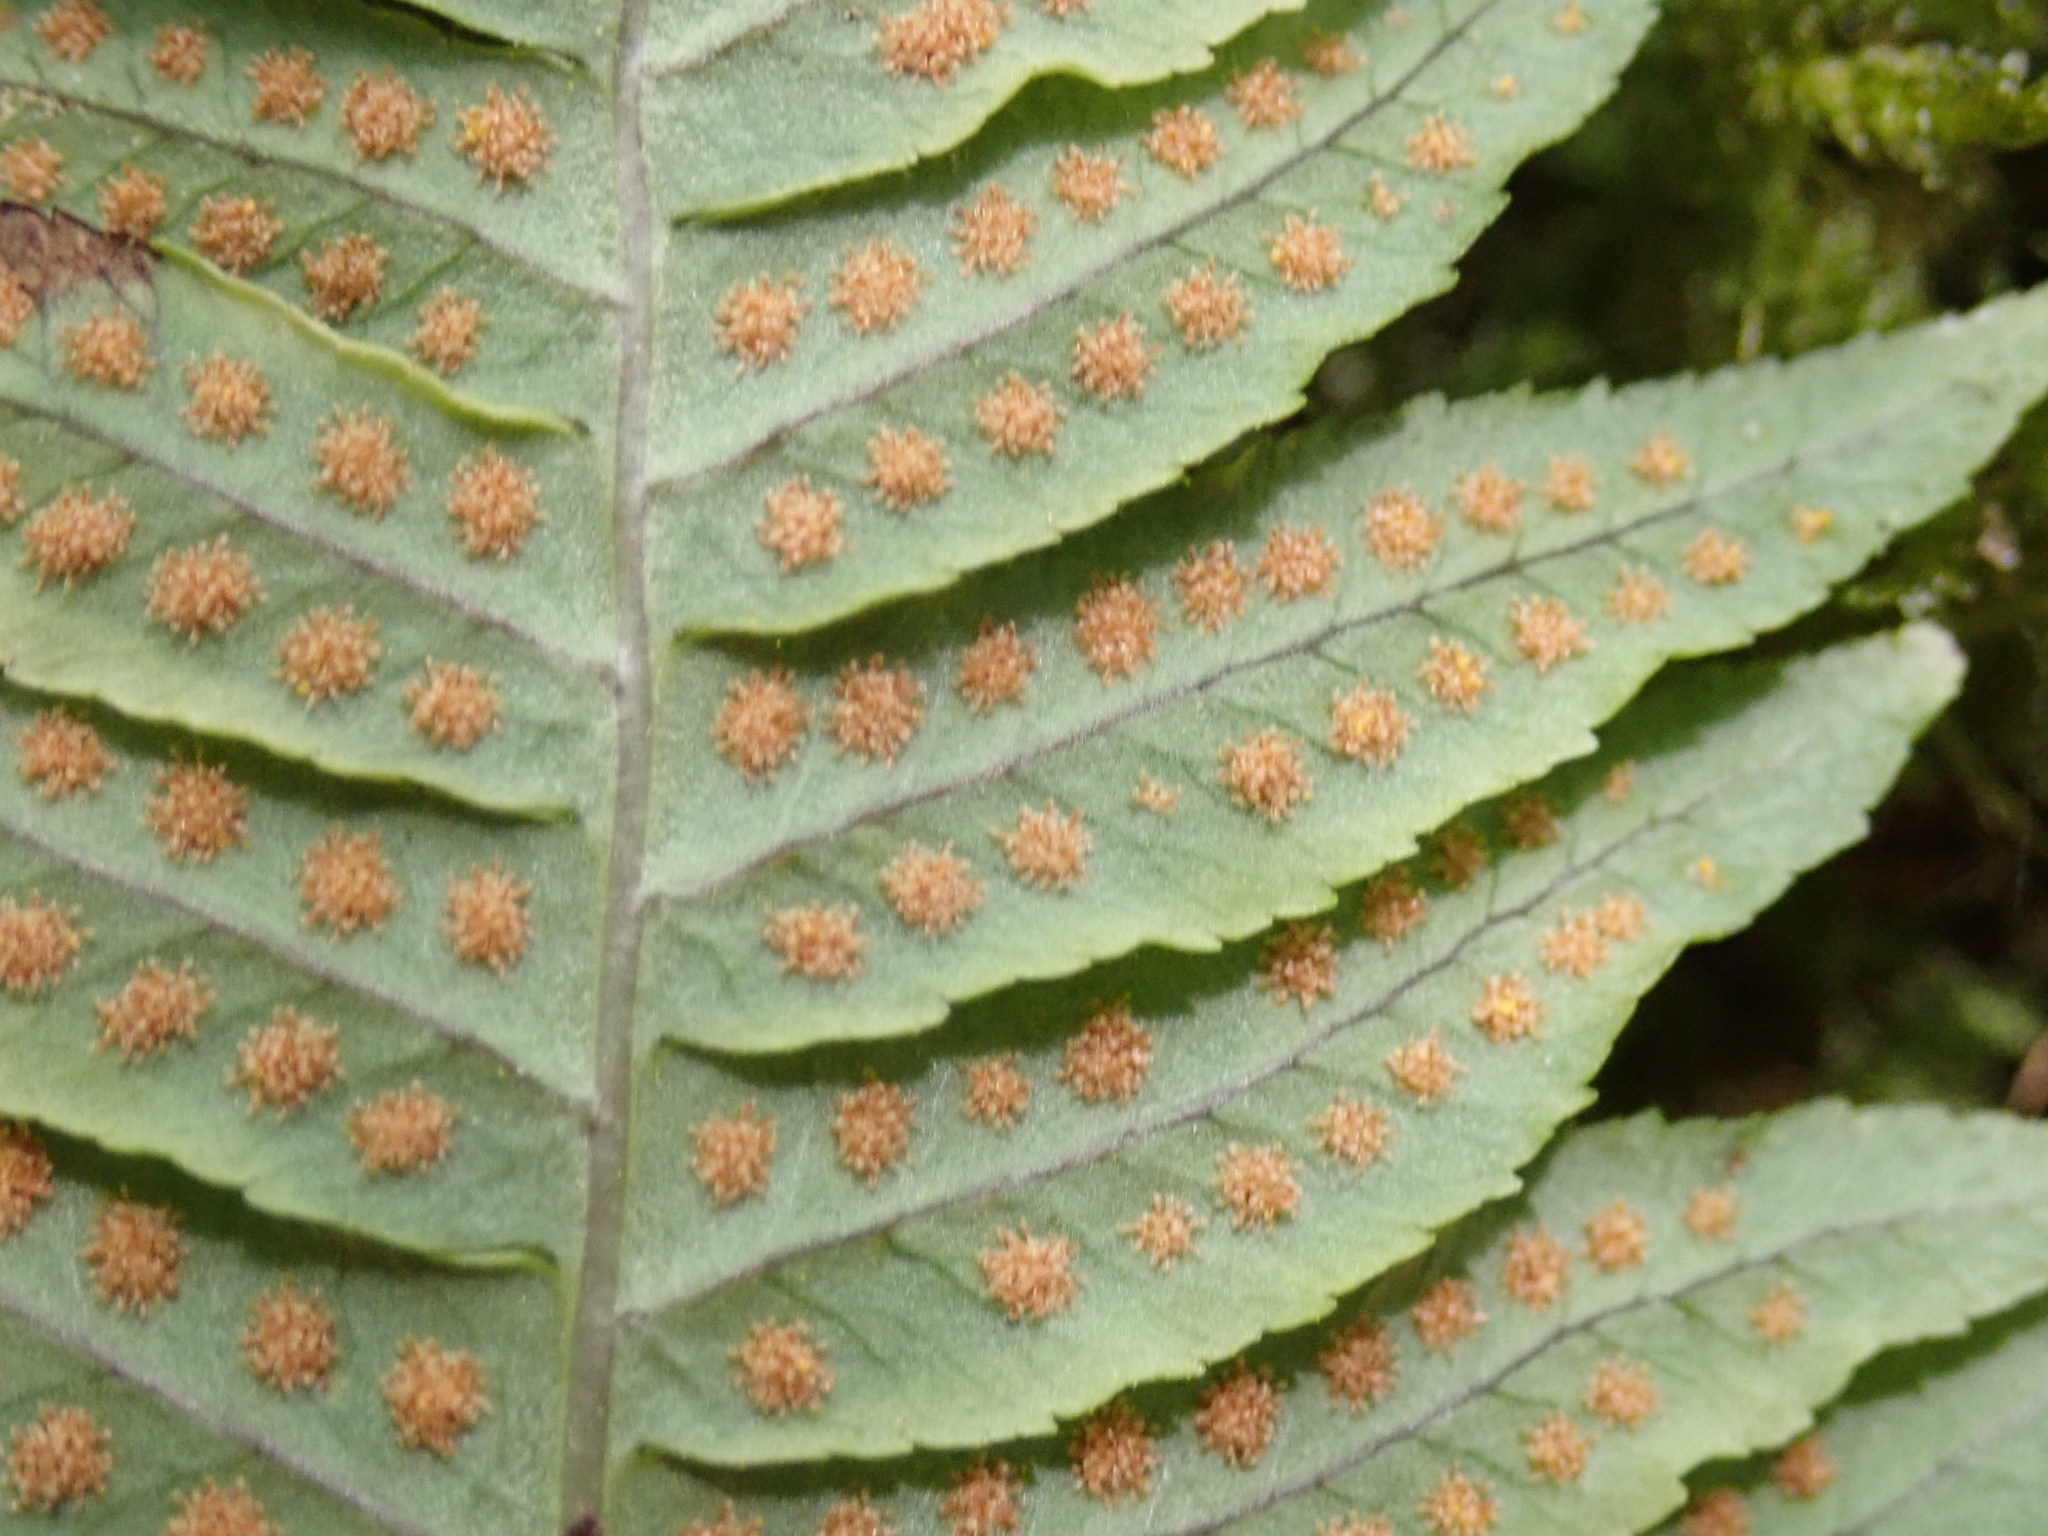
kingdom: Plantae
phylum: Tracheophyta
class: Polypodiopsida
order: Polypodiales
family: Polypodiaceae
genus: Polypodium
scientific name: Polypodium glycyrrhiza
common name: Licorice fern
